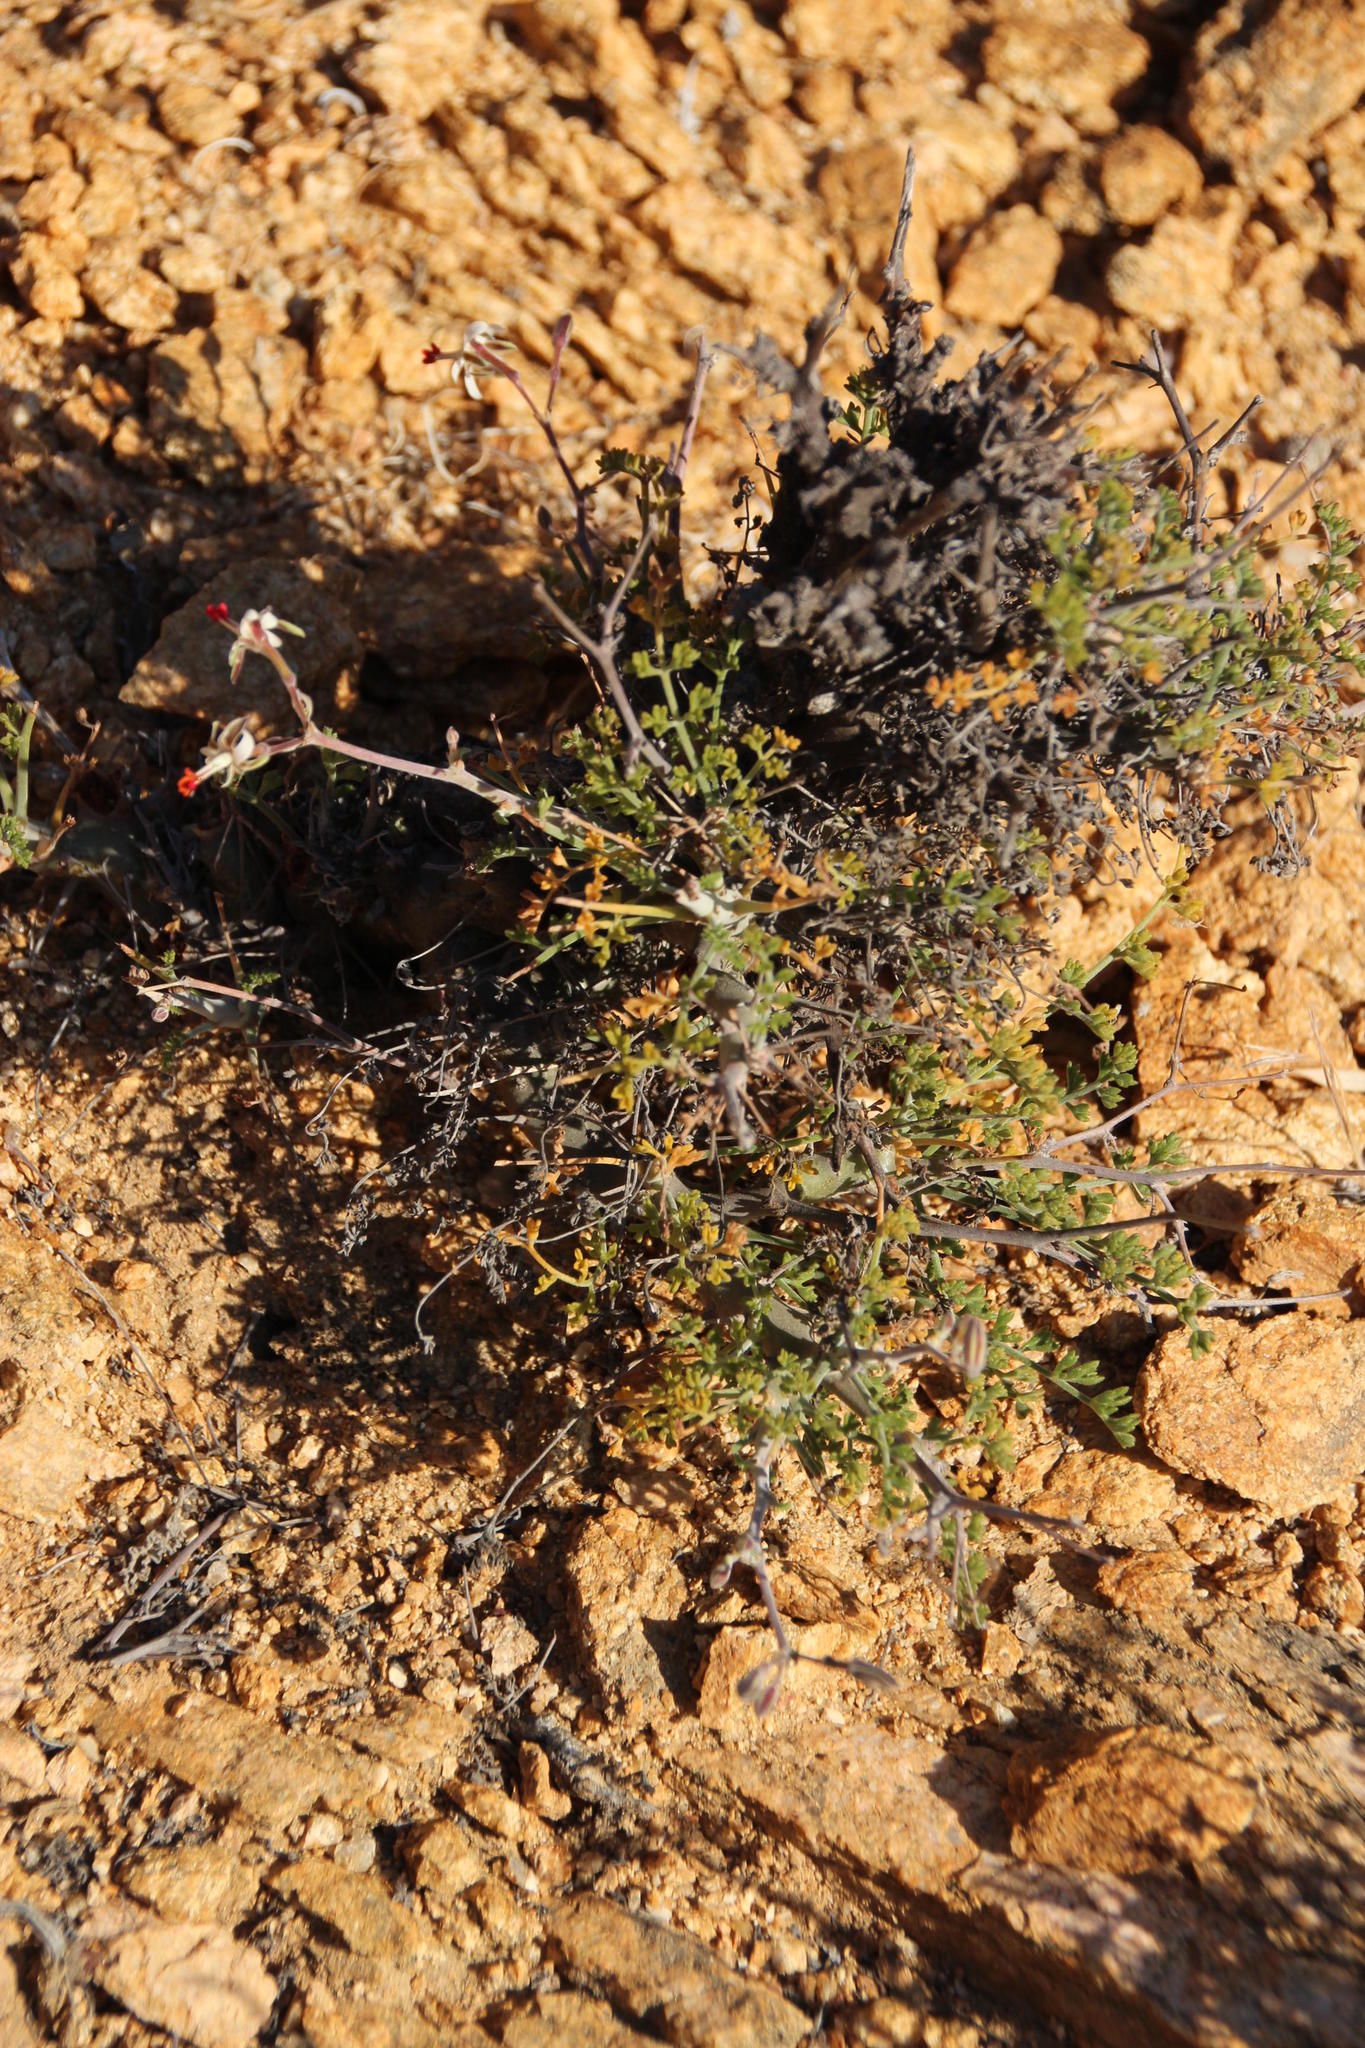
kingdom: Plantae
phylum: Tracheophyta
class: Magnoliopsida
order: Geraniales
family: Geraniaceae
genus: Pelargonium
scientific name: Pelargonium dasyphyllum
